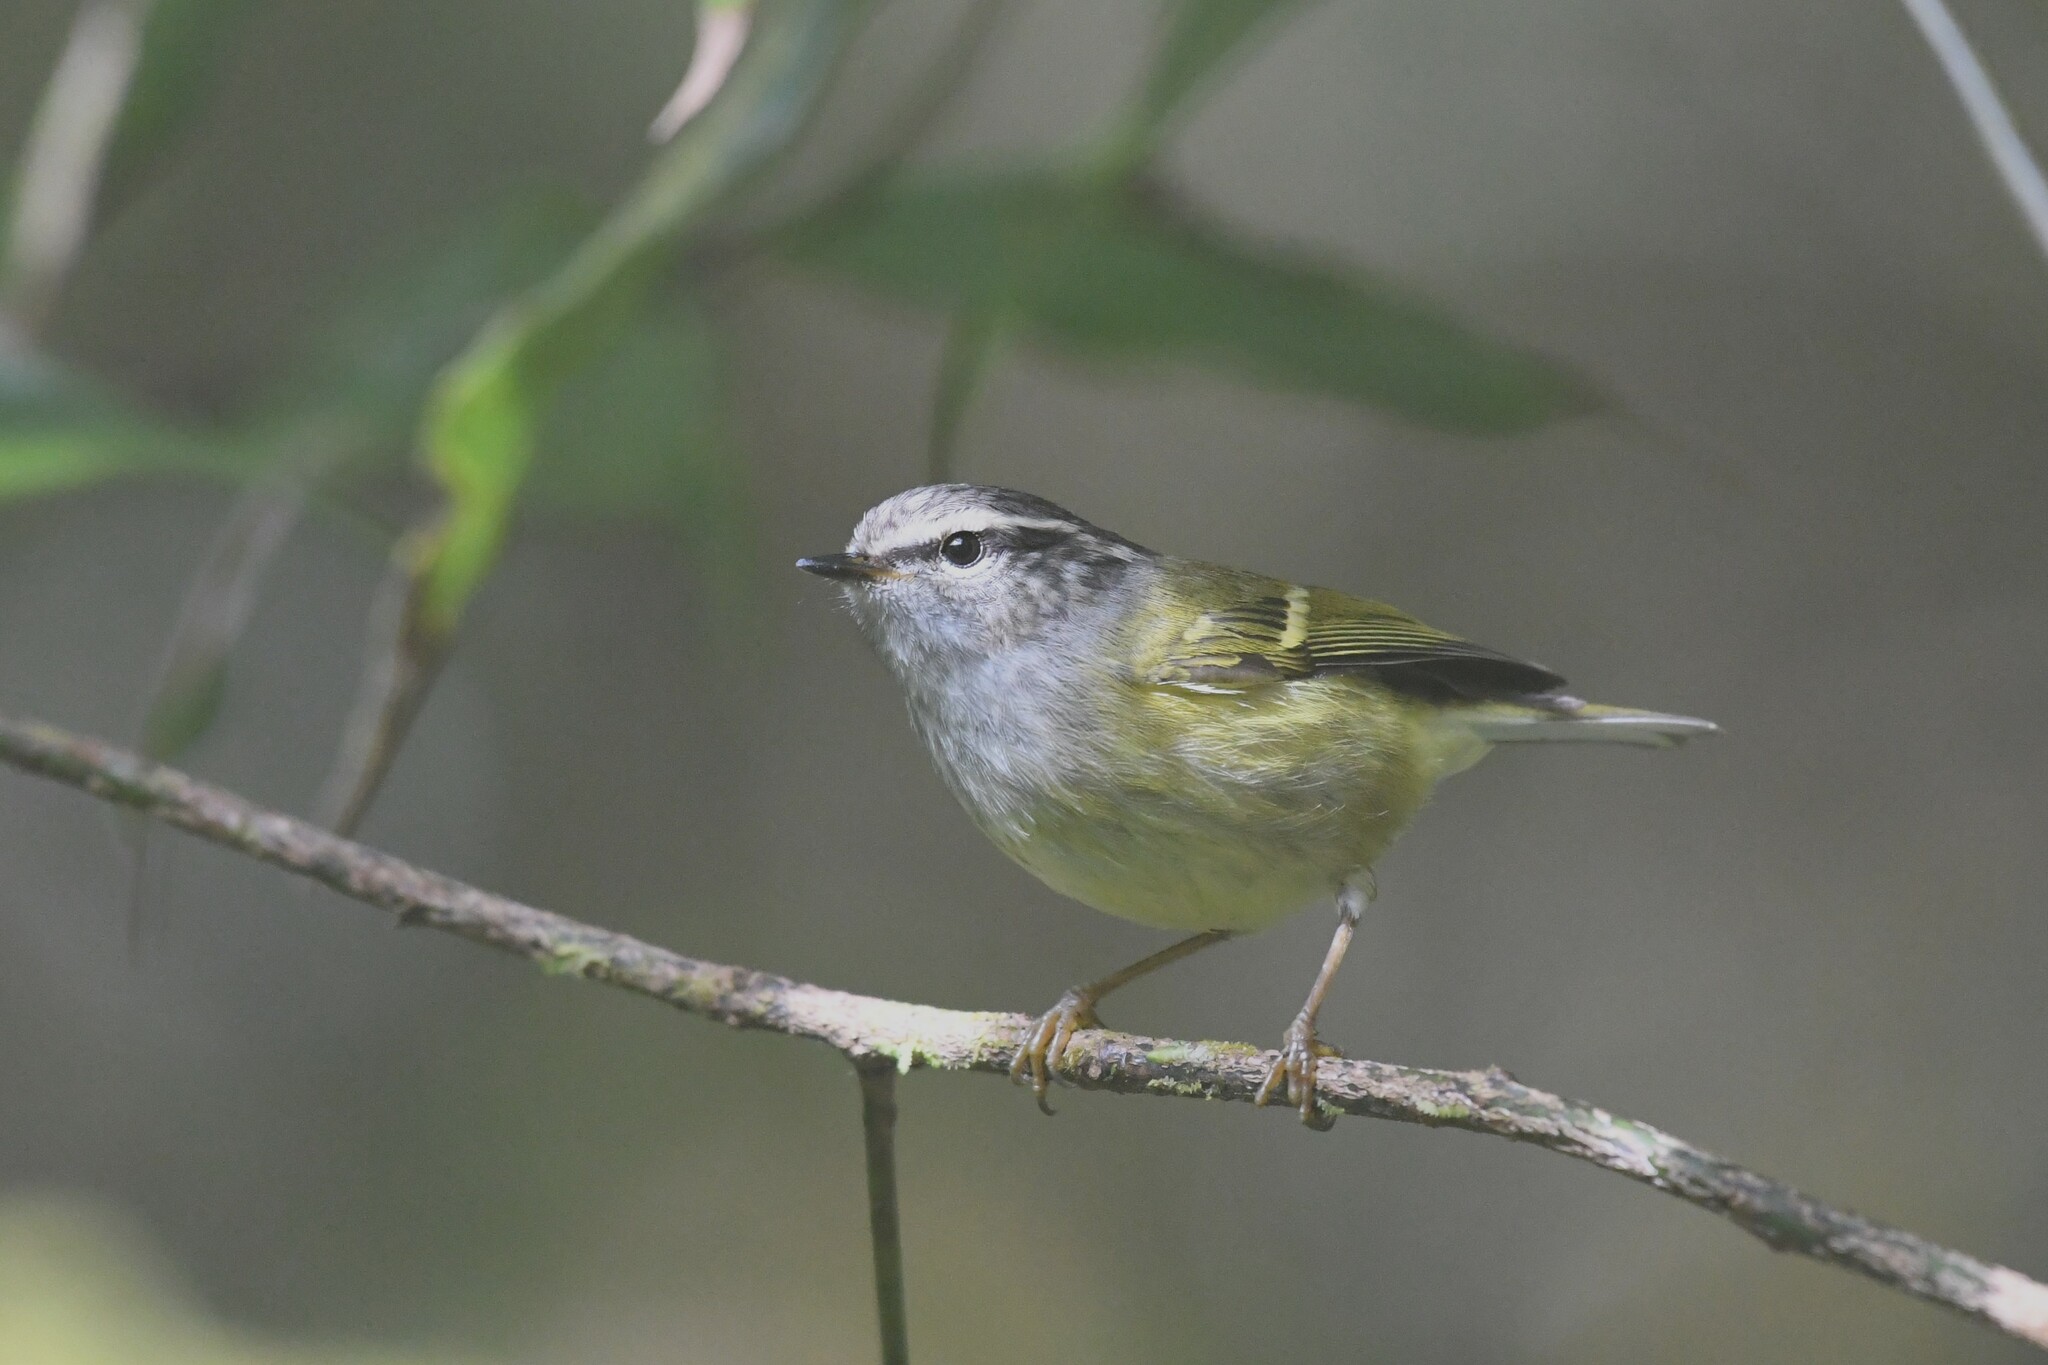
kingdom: Animalia
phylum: Chordata
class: Aves
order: Passeriformes
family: Phylloscopidae
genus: Phylloscopus
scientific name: Phylloscopus maculipennis
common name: Ashy-throated warbler
